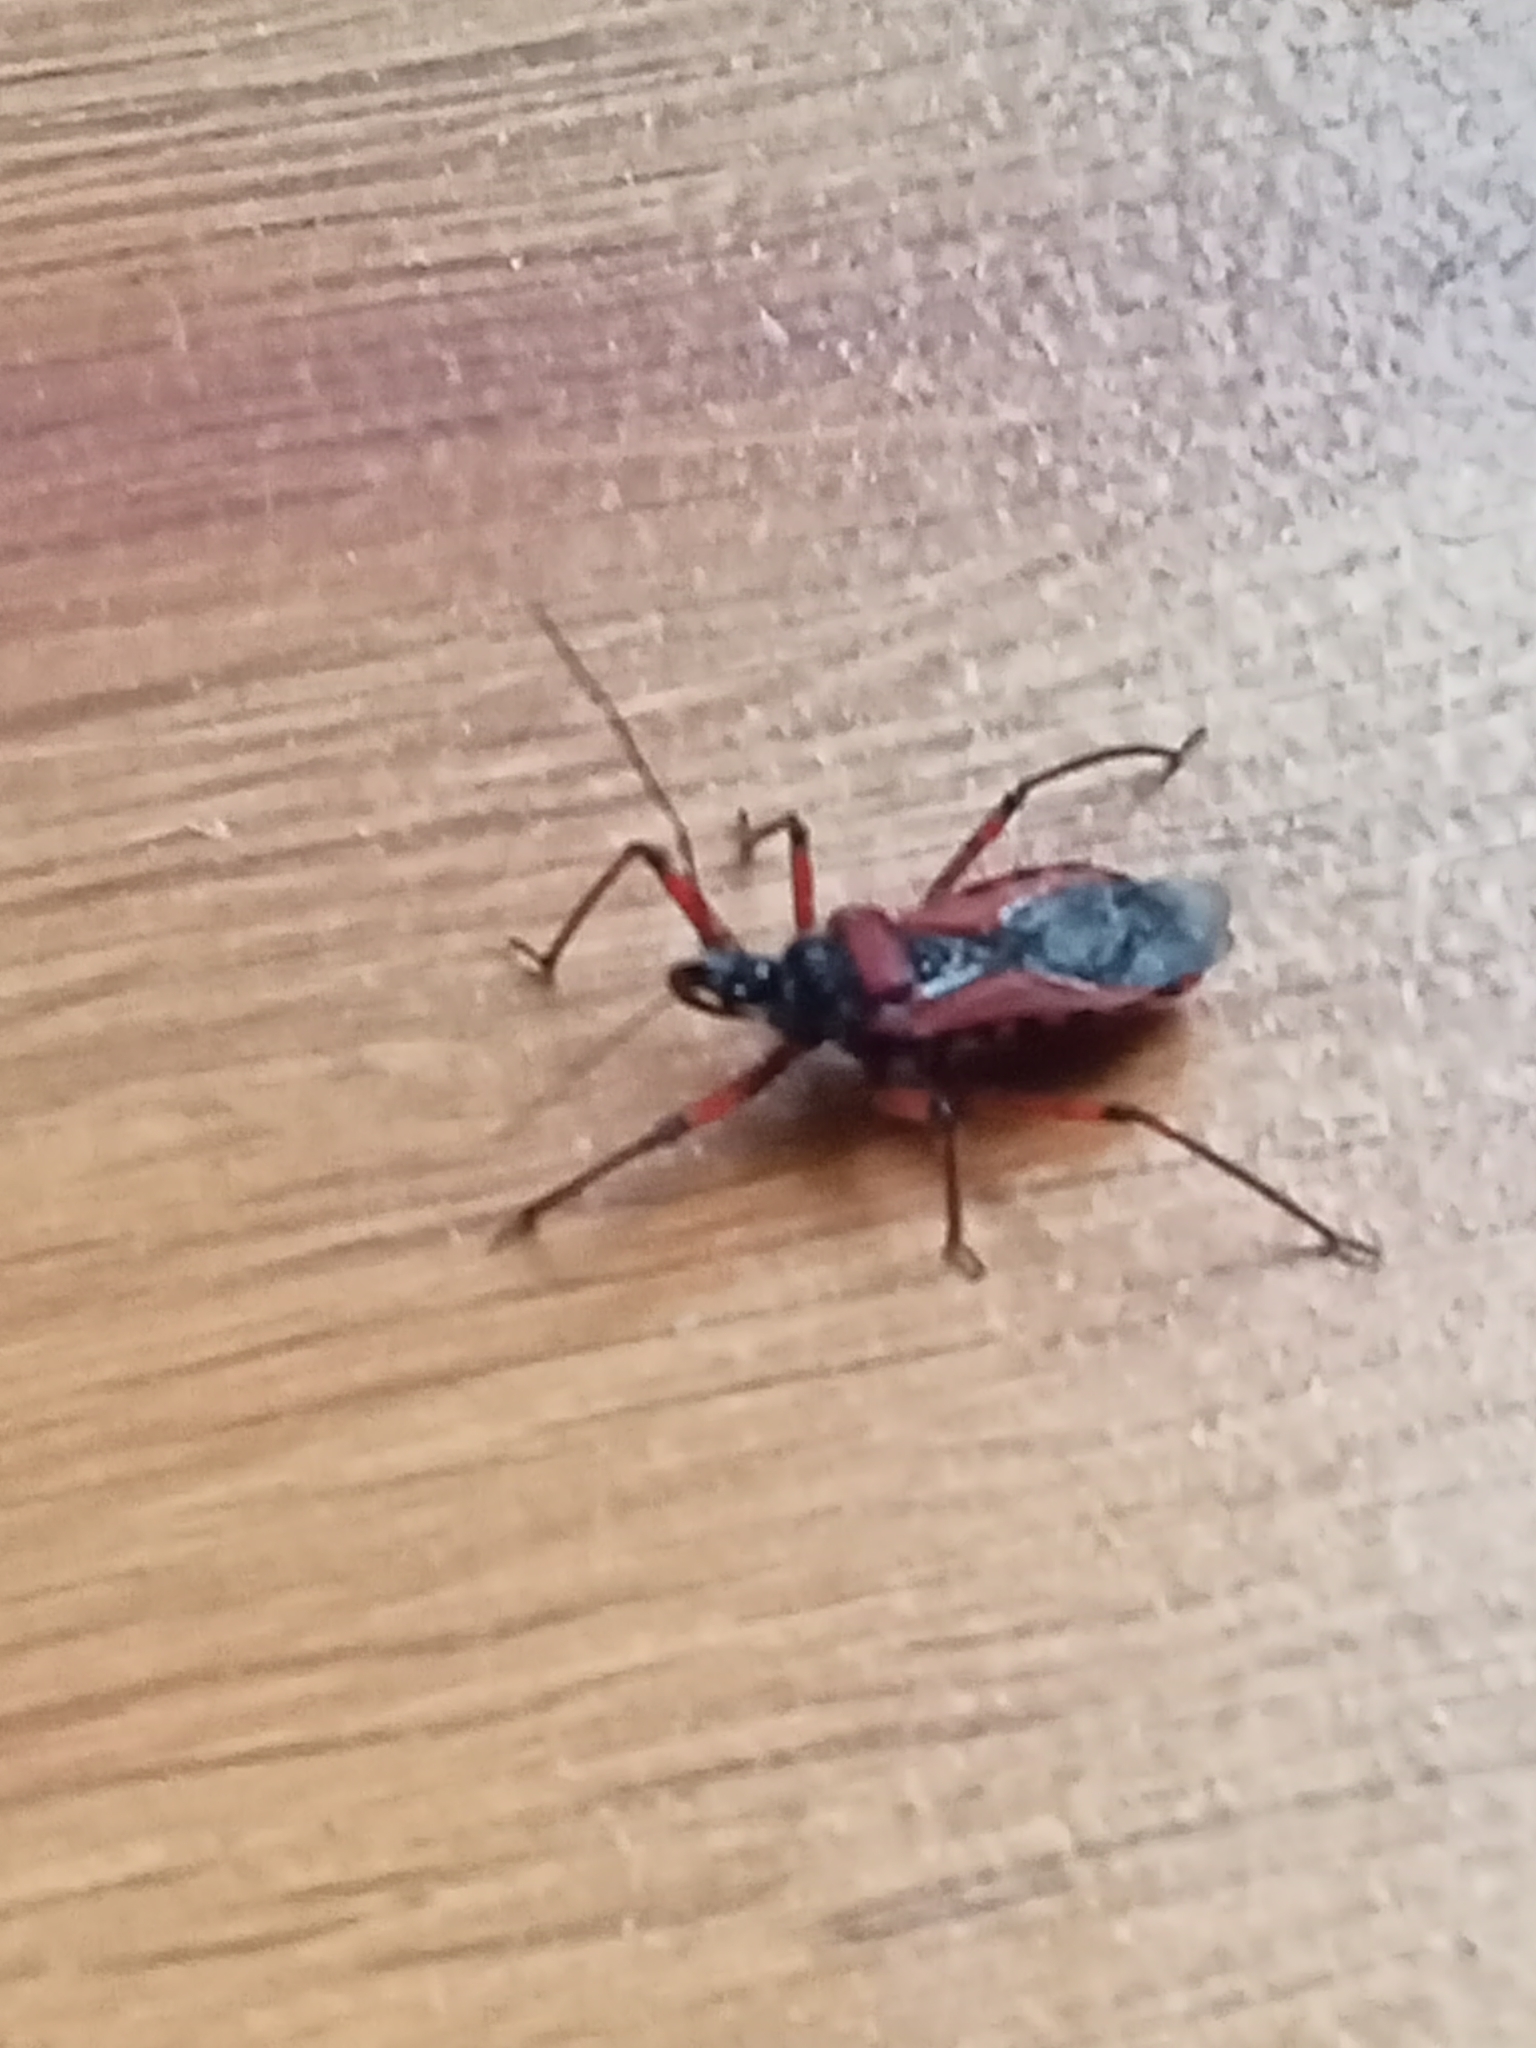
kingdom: Animalia
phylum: Arthropoda
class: Insecta
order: Hemiptera
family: Reduviidae
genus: Rhynocoris
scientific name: Rhynocoris iracundus
